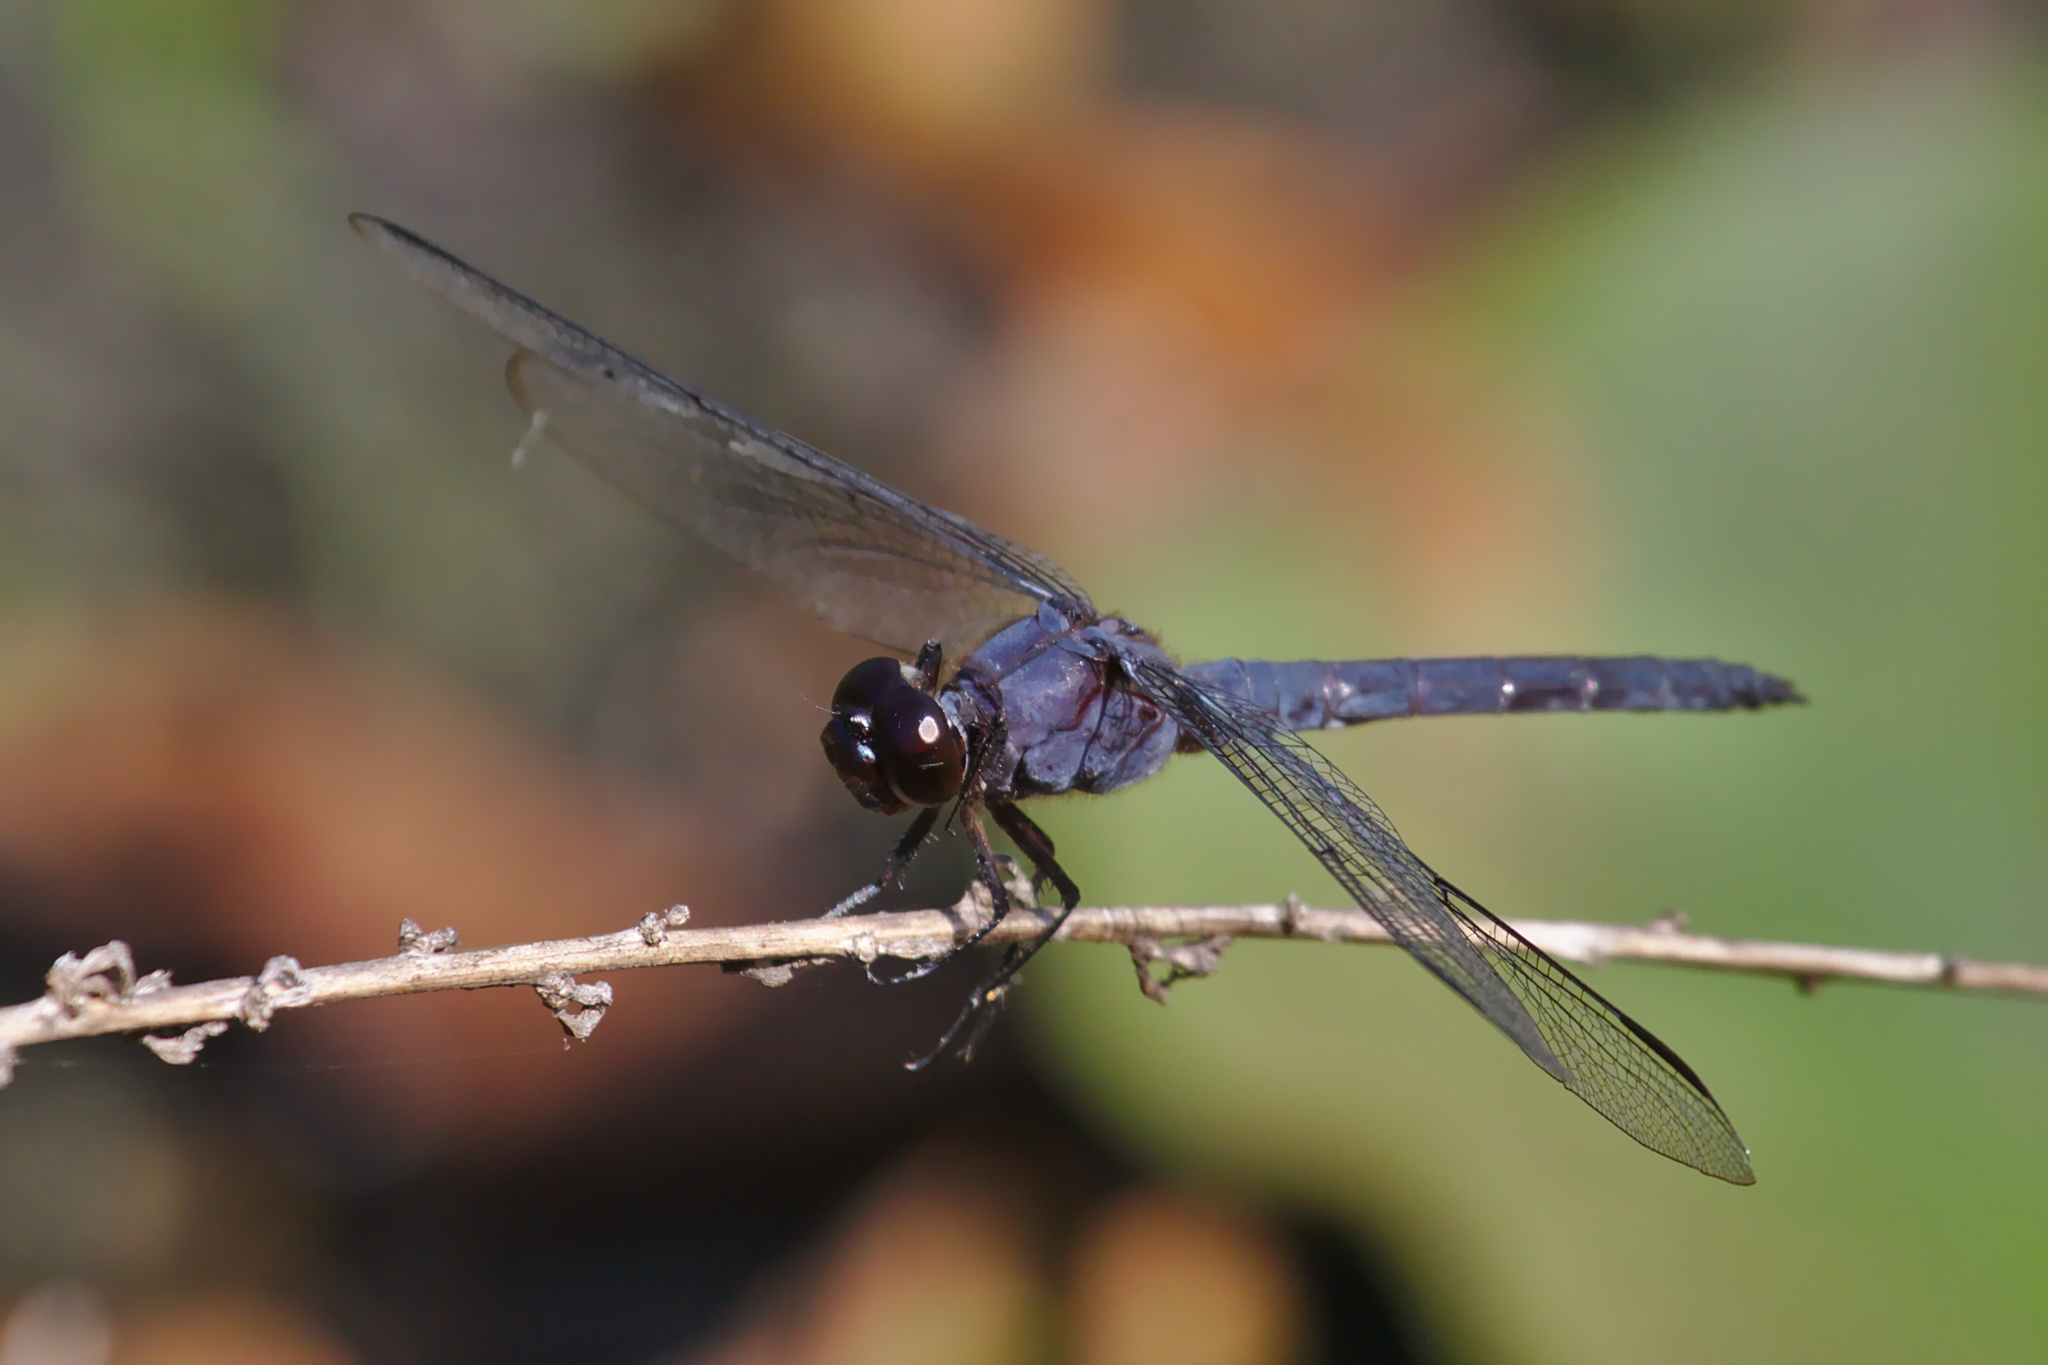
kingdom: Animalia
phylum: Arthropoda
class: Insecta
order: Odonata
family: Libellulidae
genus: Libellula
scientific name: Libellula incesta
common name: Slaty skimmer
